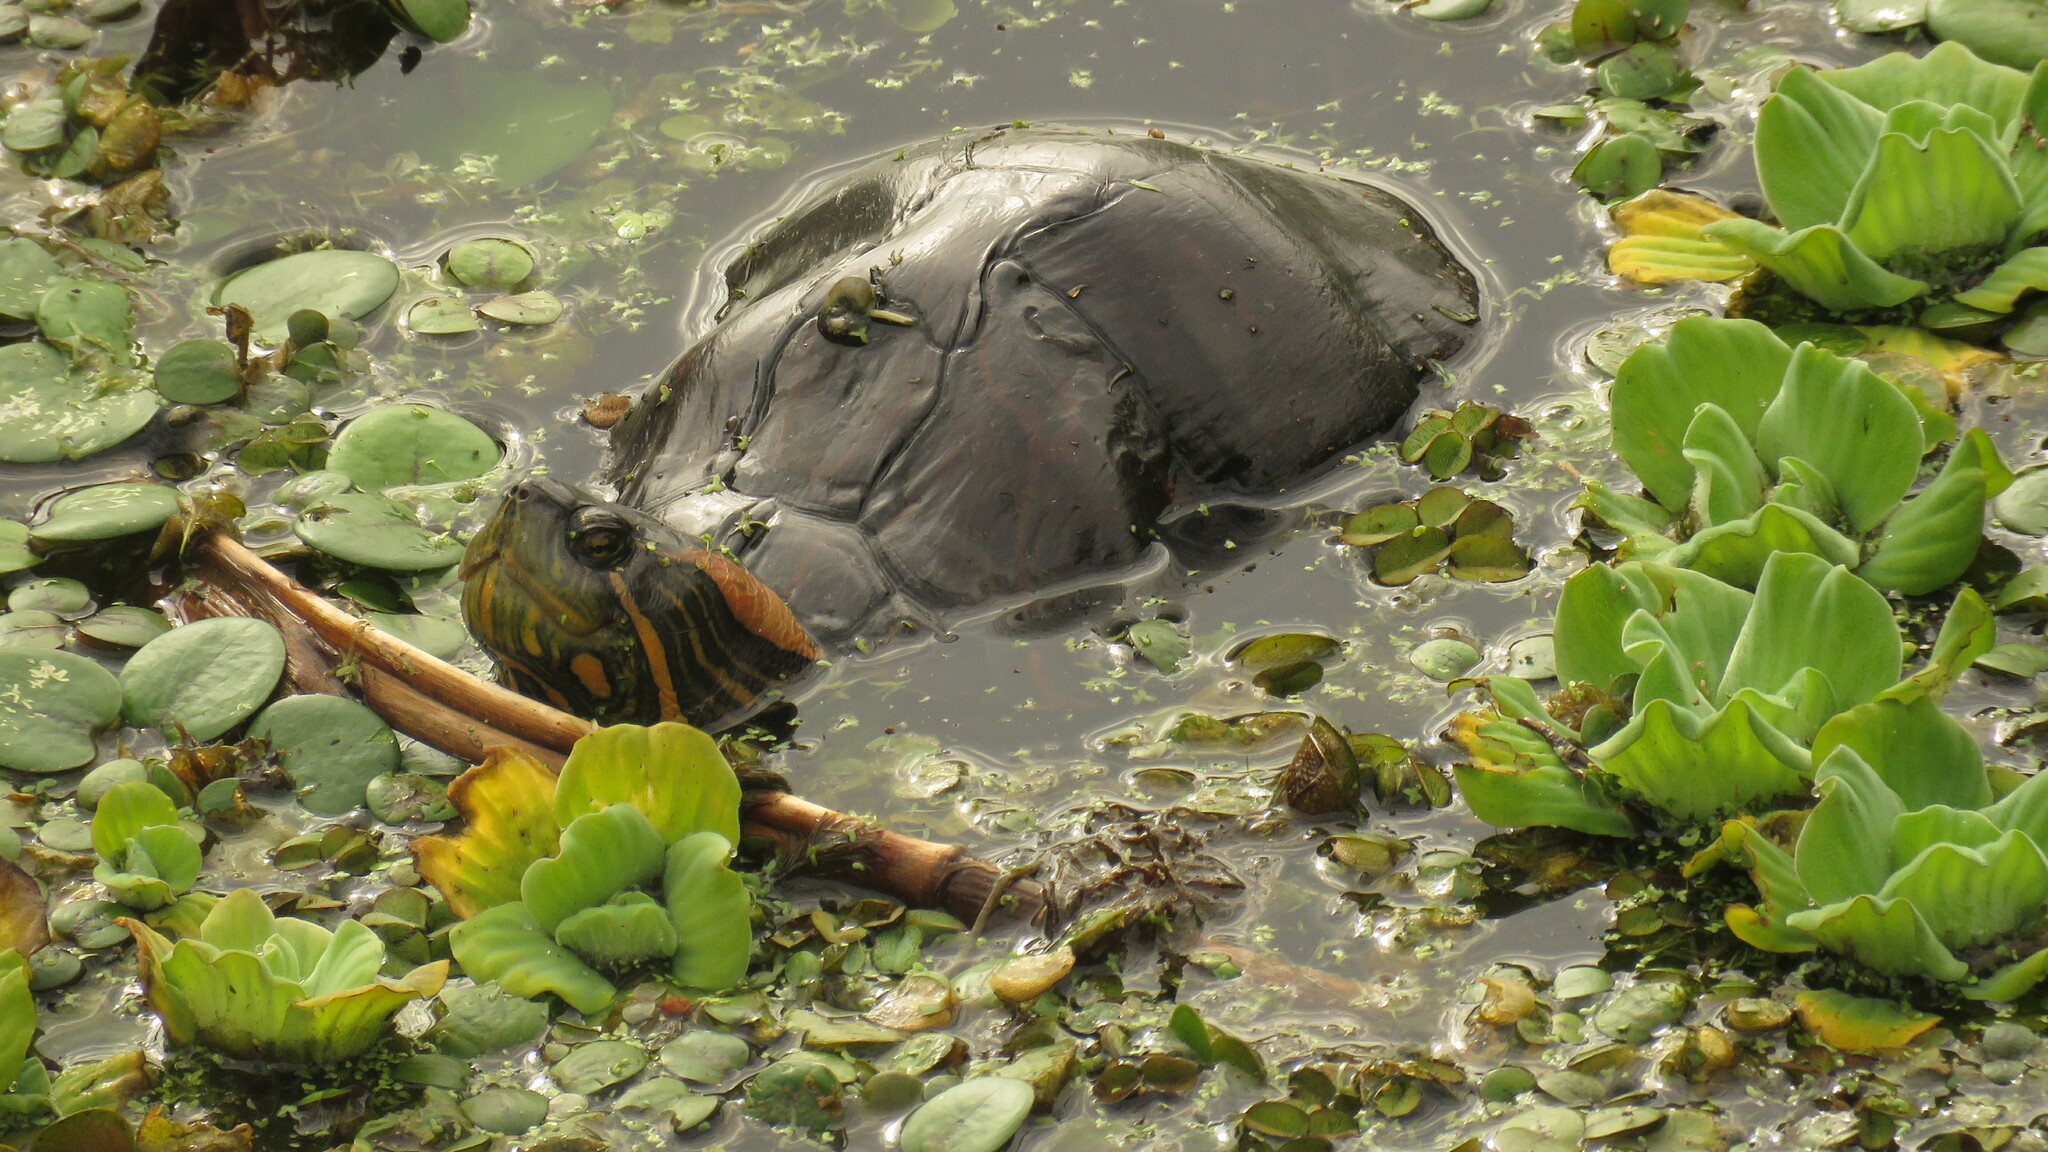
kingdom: Animalia
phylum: Chordata
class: Testudines
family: Emydidae
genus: Trachemys
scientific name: Trachemys dorbigni
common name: Black-bellied slider
